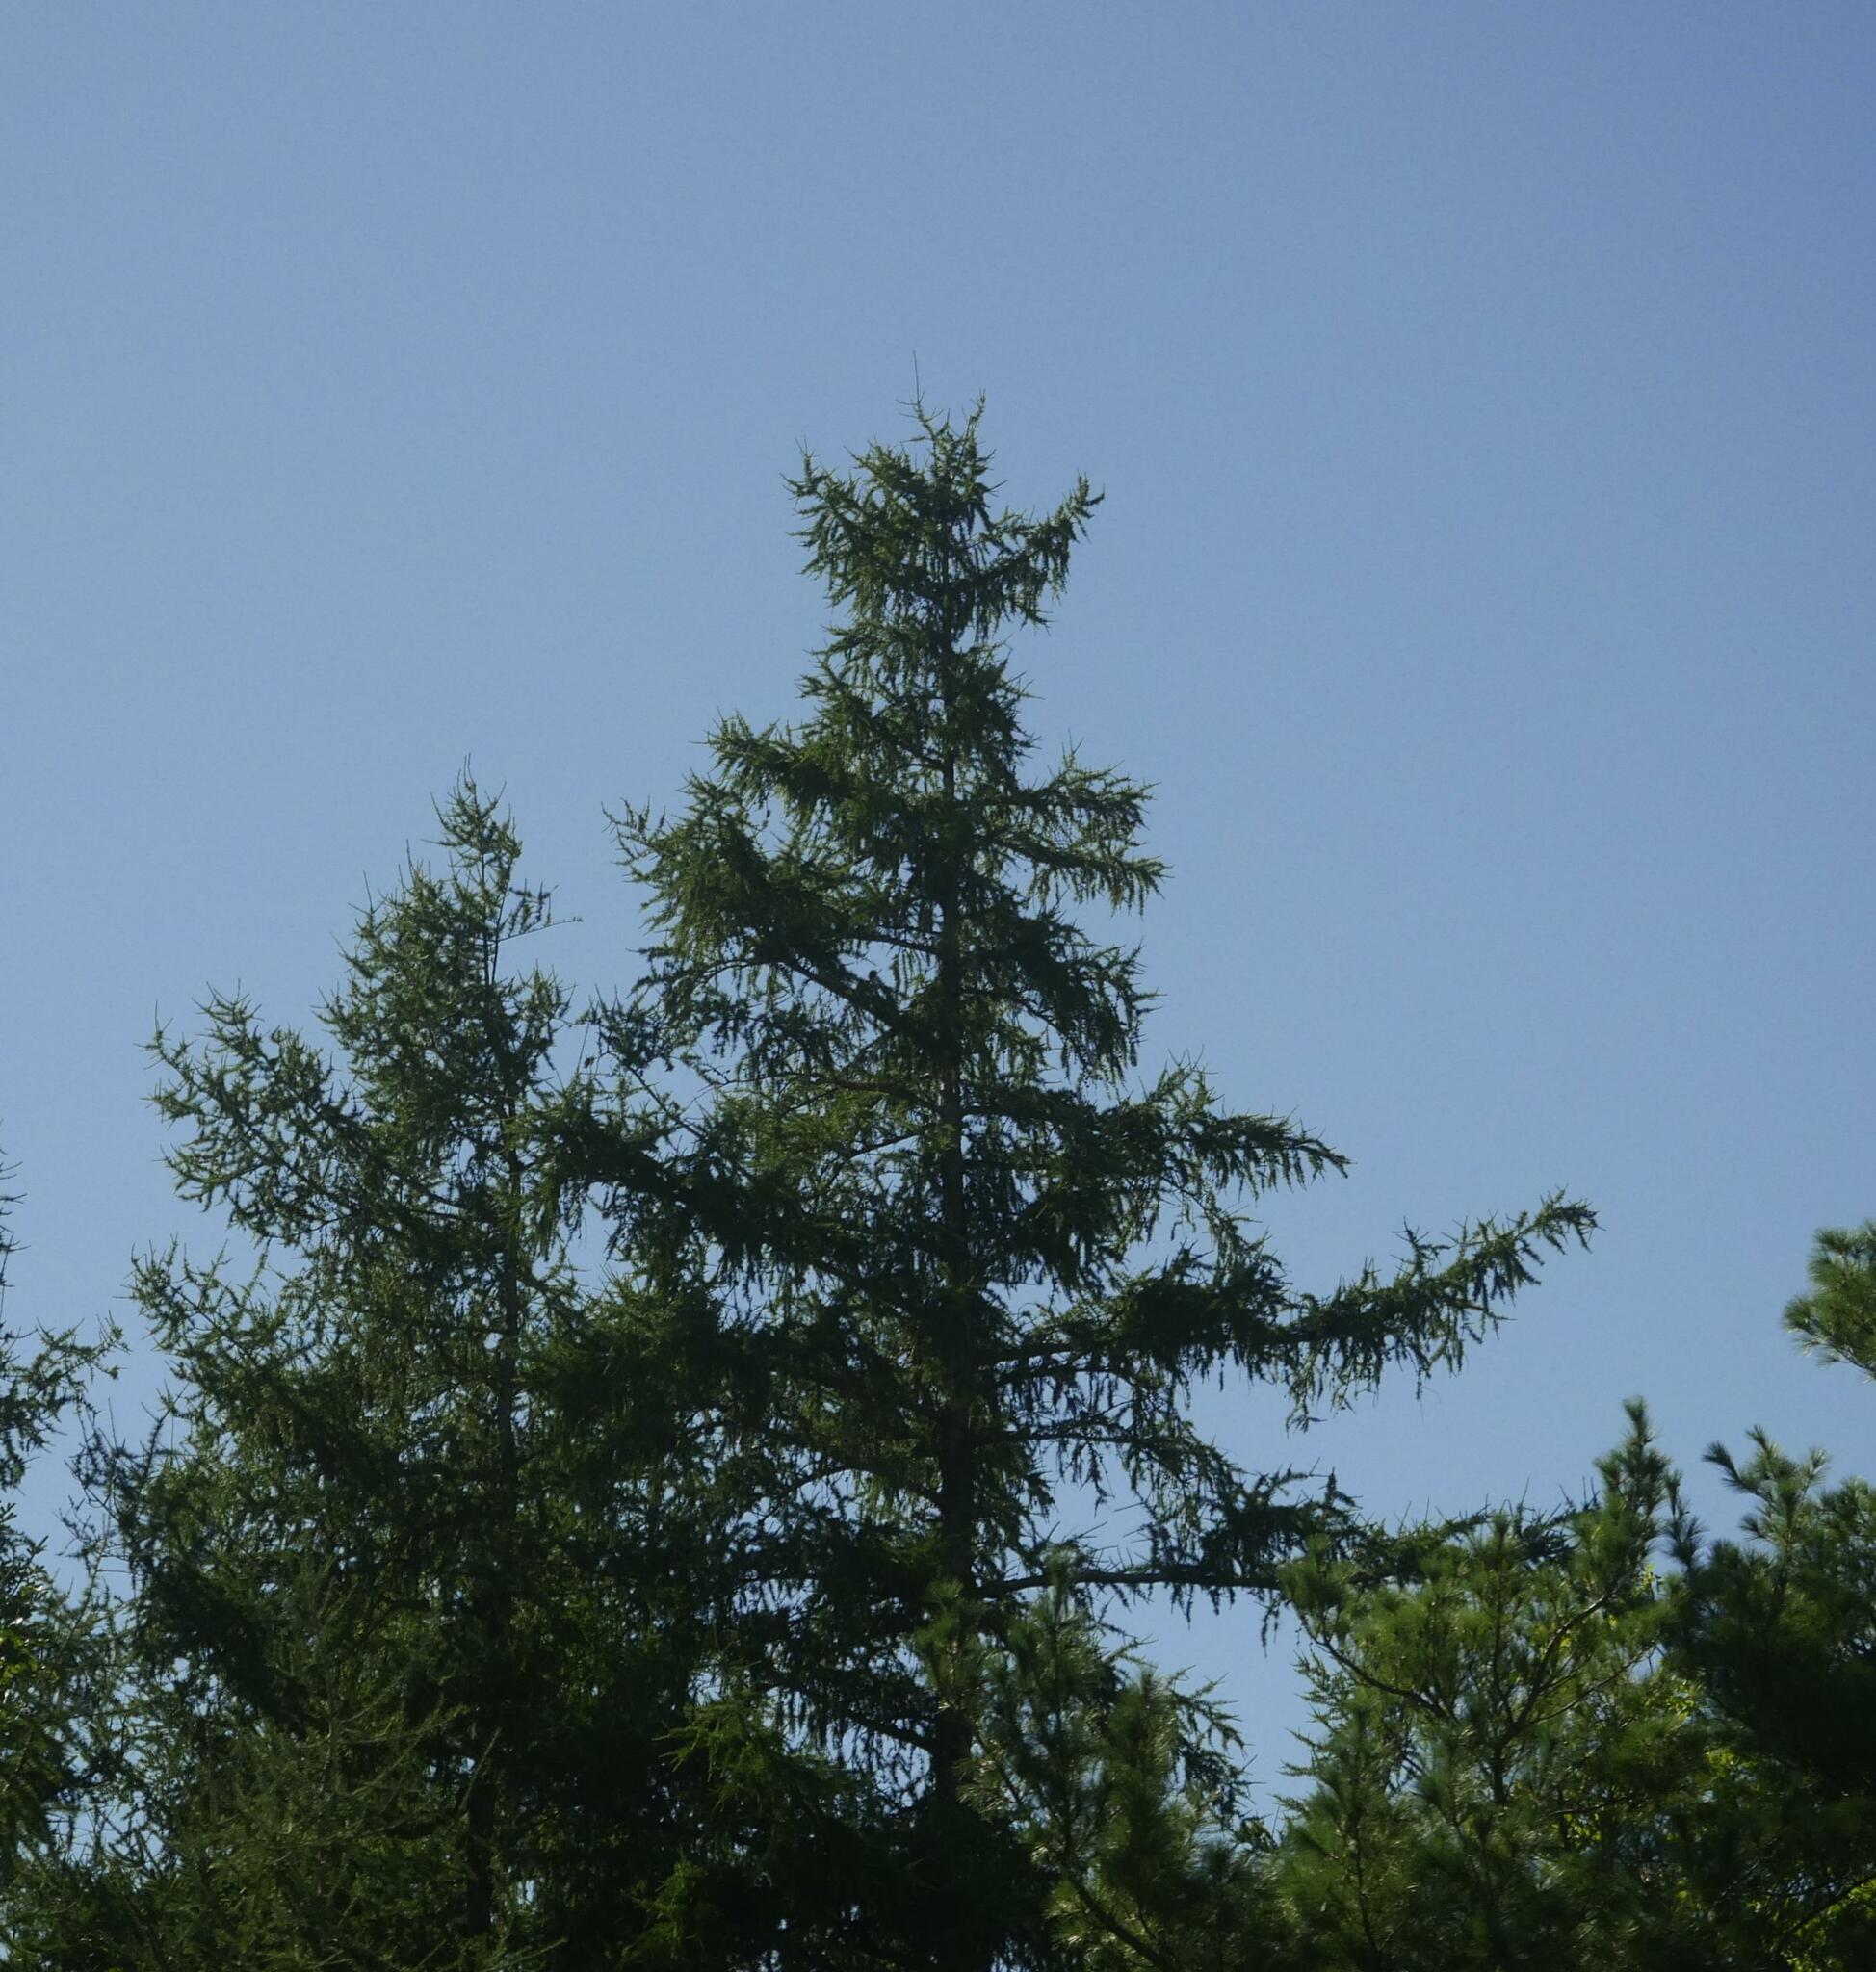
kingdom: Plantae
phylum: Tracheophyta
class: Pinopsida
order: Pinales
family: Pinaceae
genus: Larix
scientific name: Larix laricina
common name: American larch
